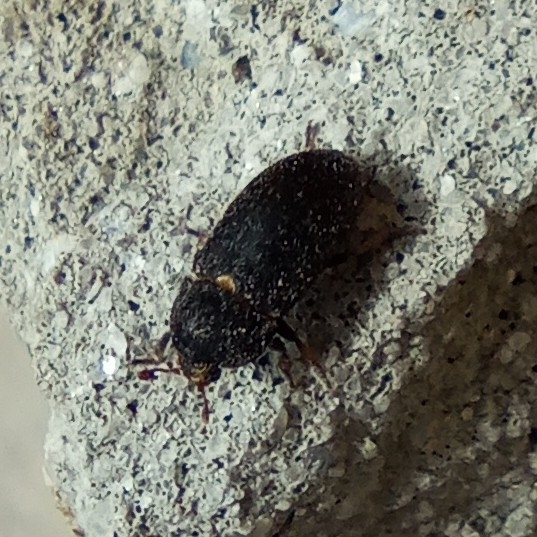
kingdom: Animalia
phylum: Arthropoda
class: Insecta
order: Coleoptera
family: Dermestidae
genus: Dermestes
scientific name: Dermestes laniarius
